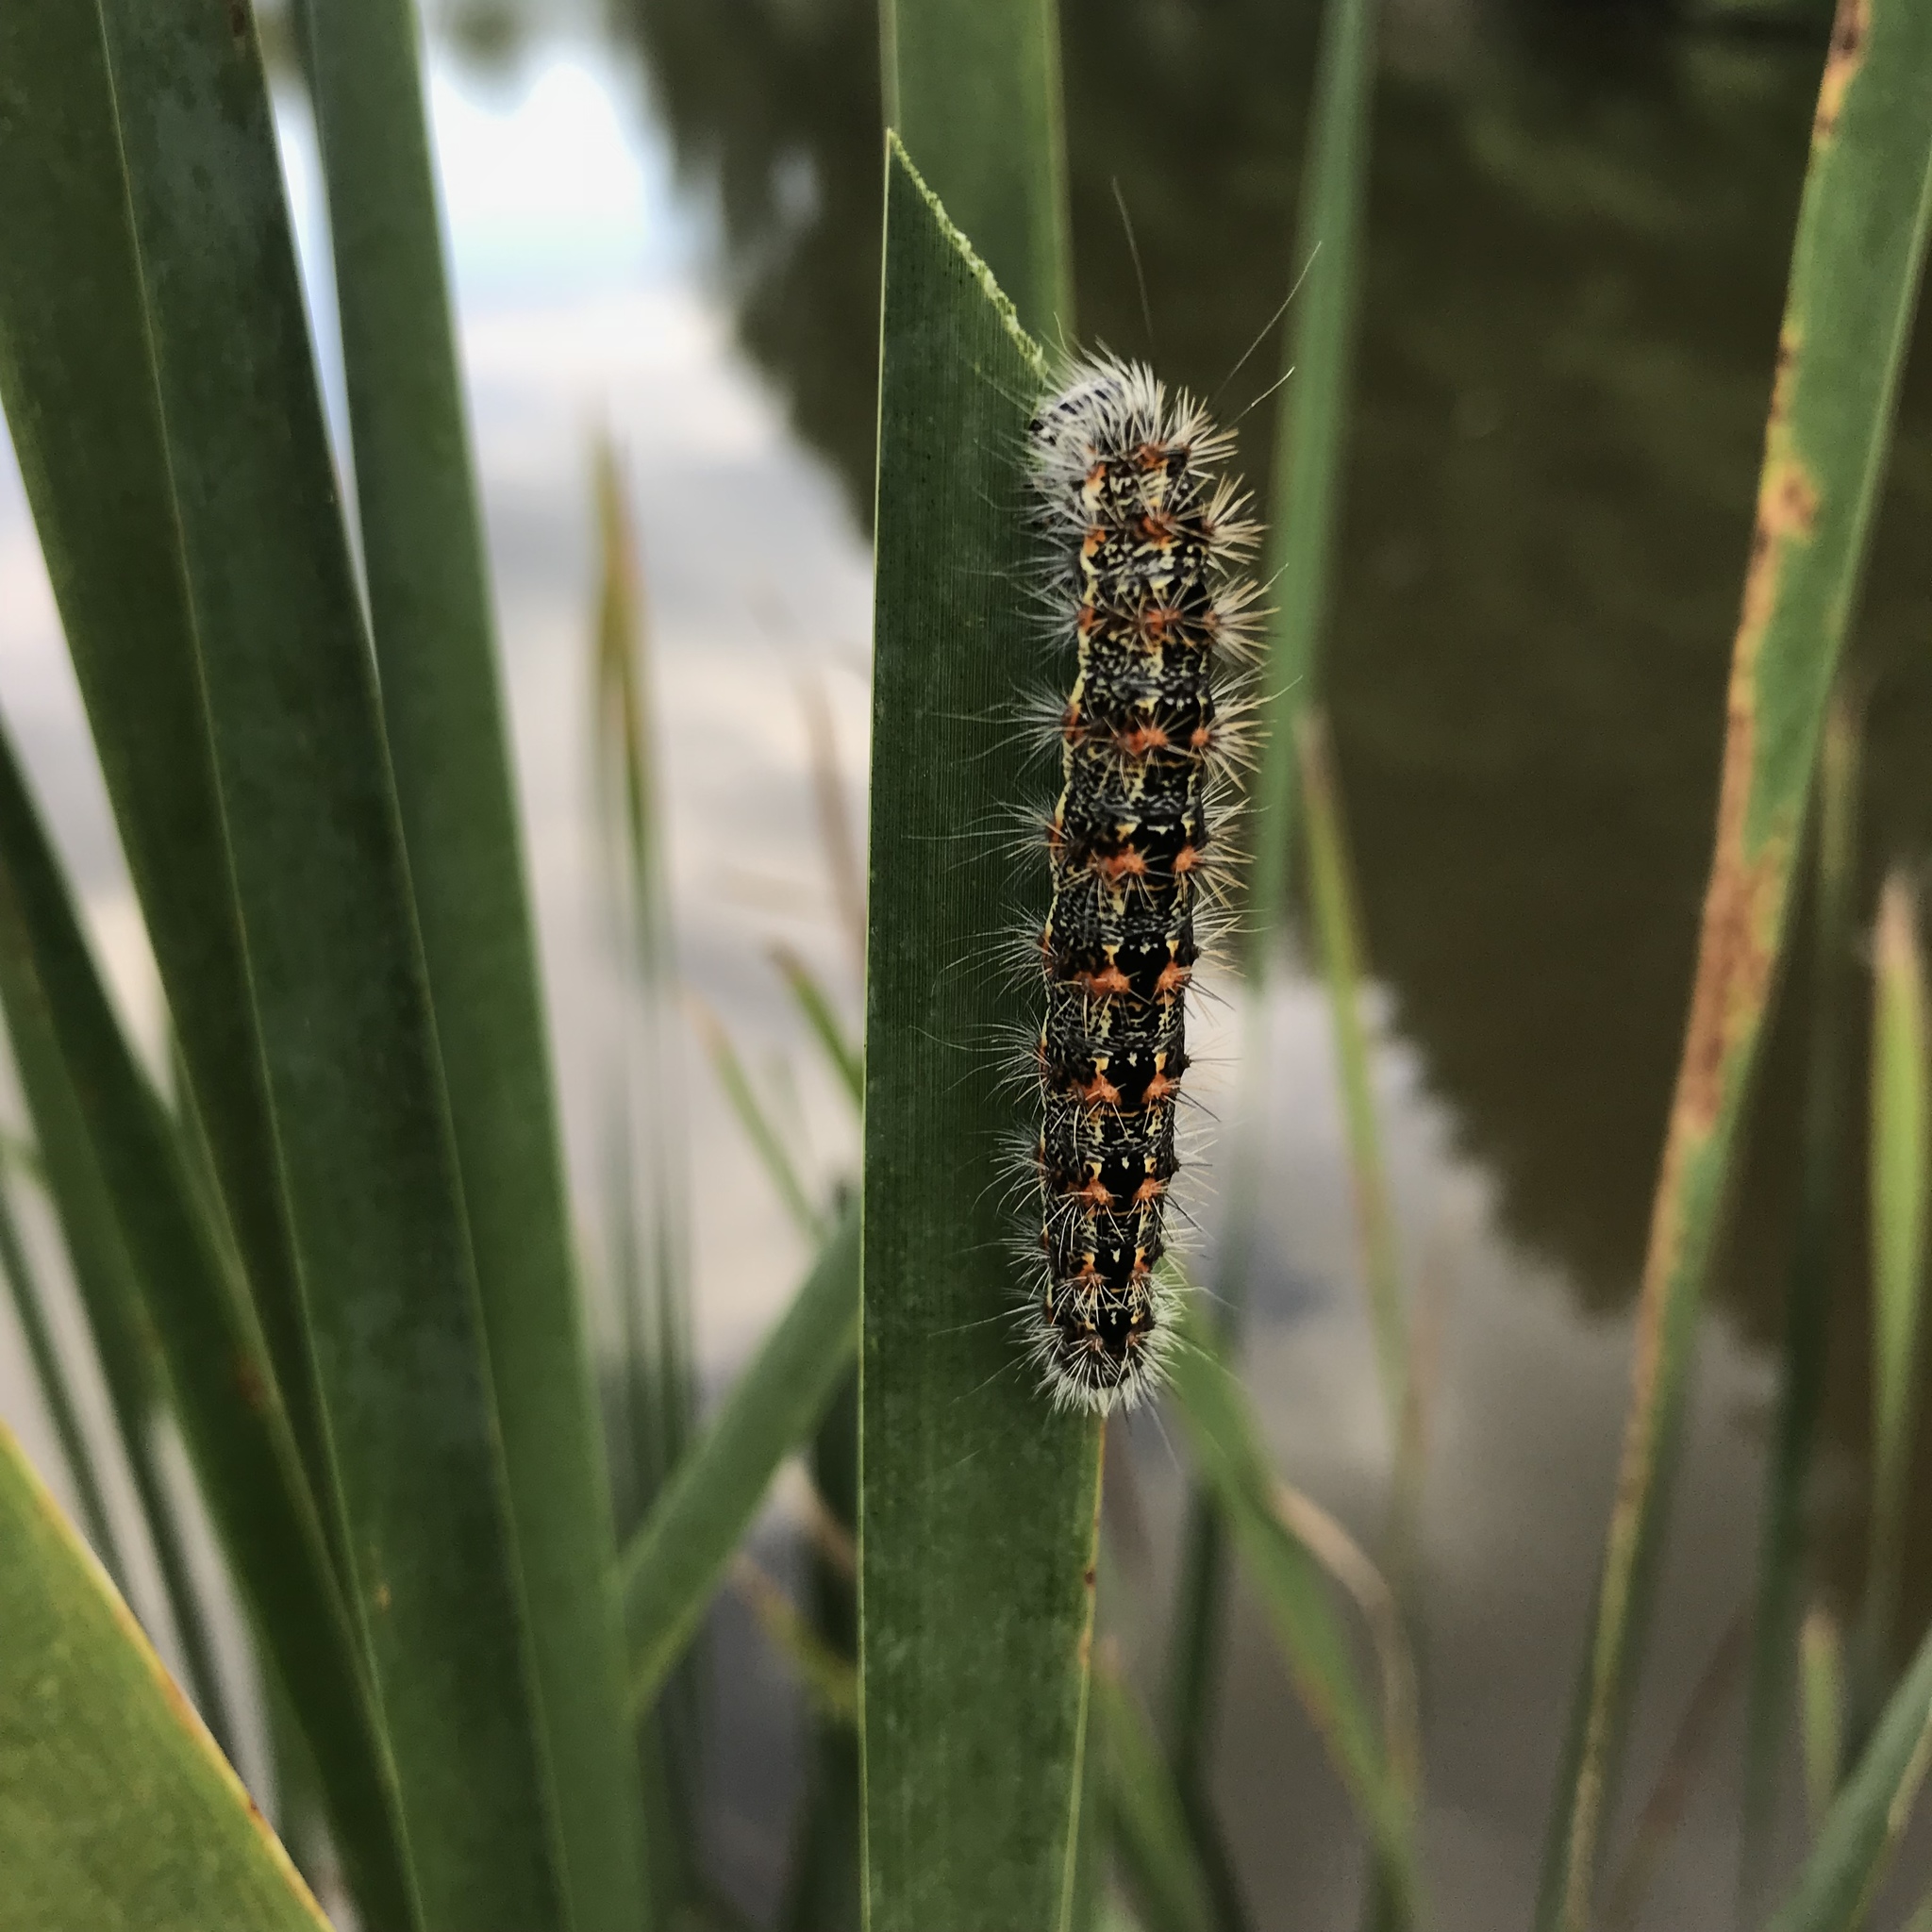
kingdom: Animalia
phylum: Arthropoda
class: Insecta
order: Lepidoptera
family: Noctuidae
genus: Acronicta
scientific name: Acronicta insularis
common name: Henry's marsh moth
